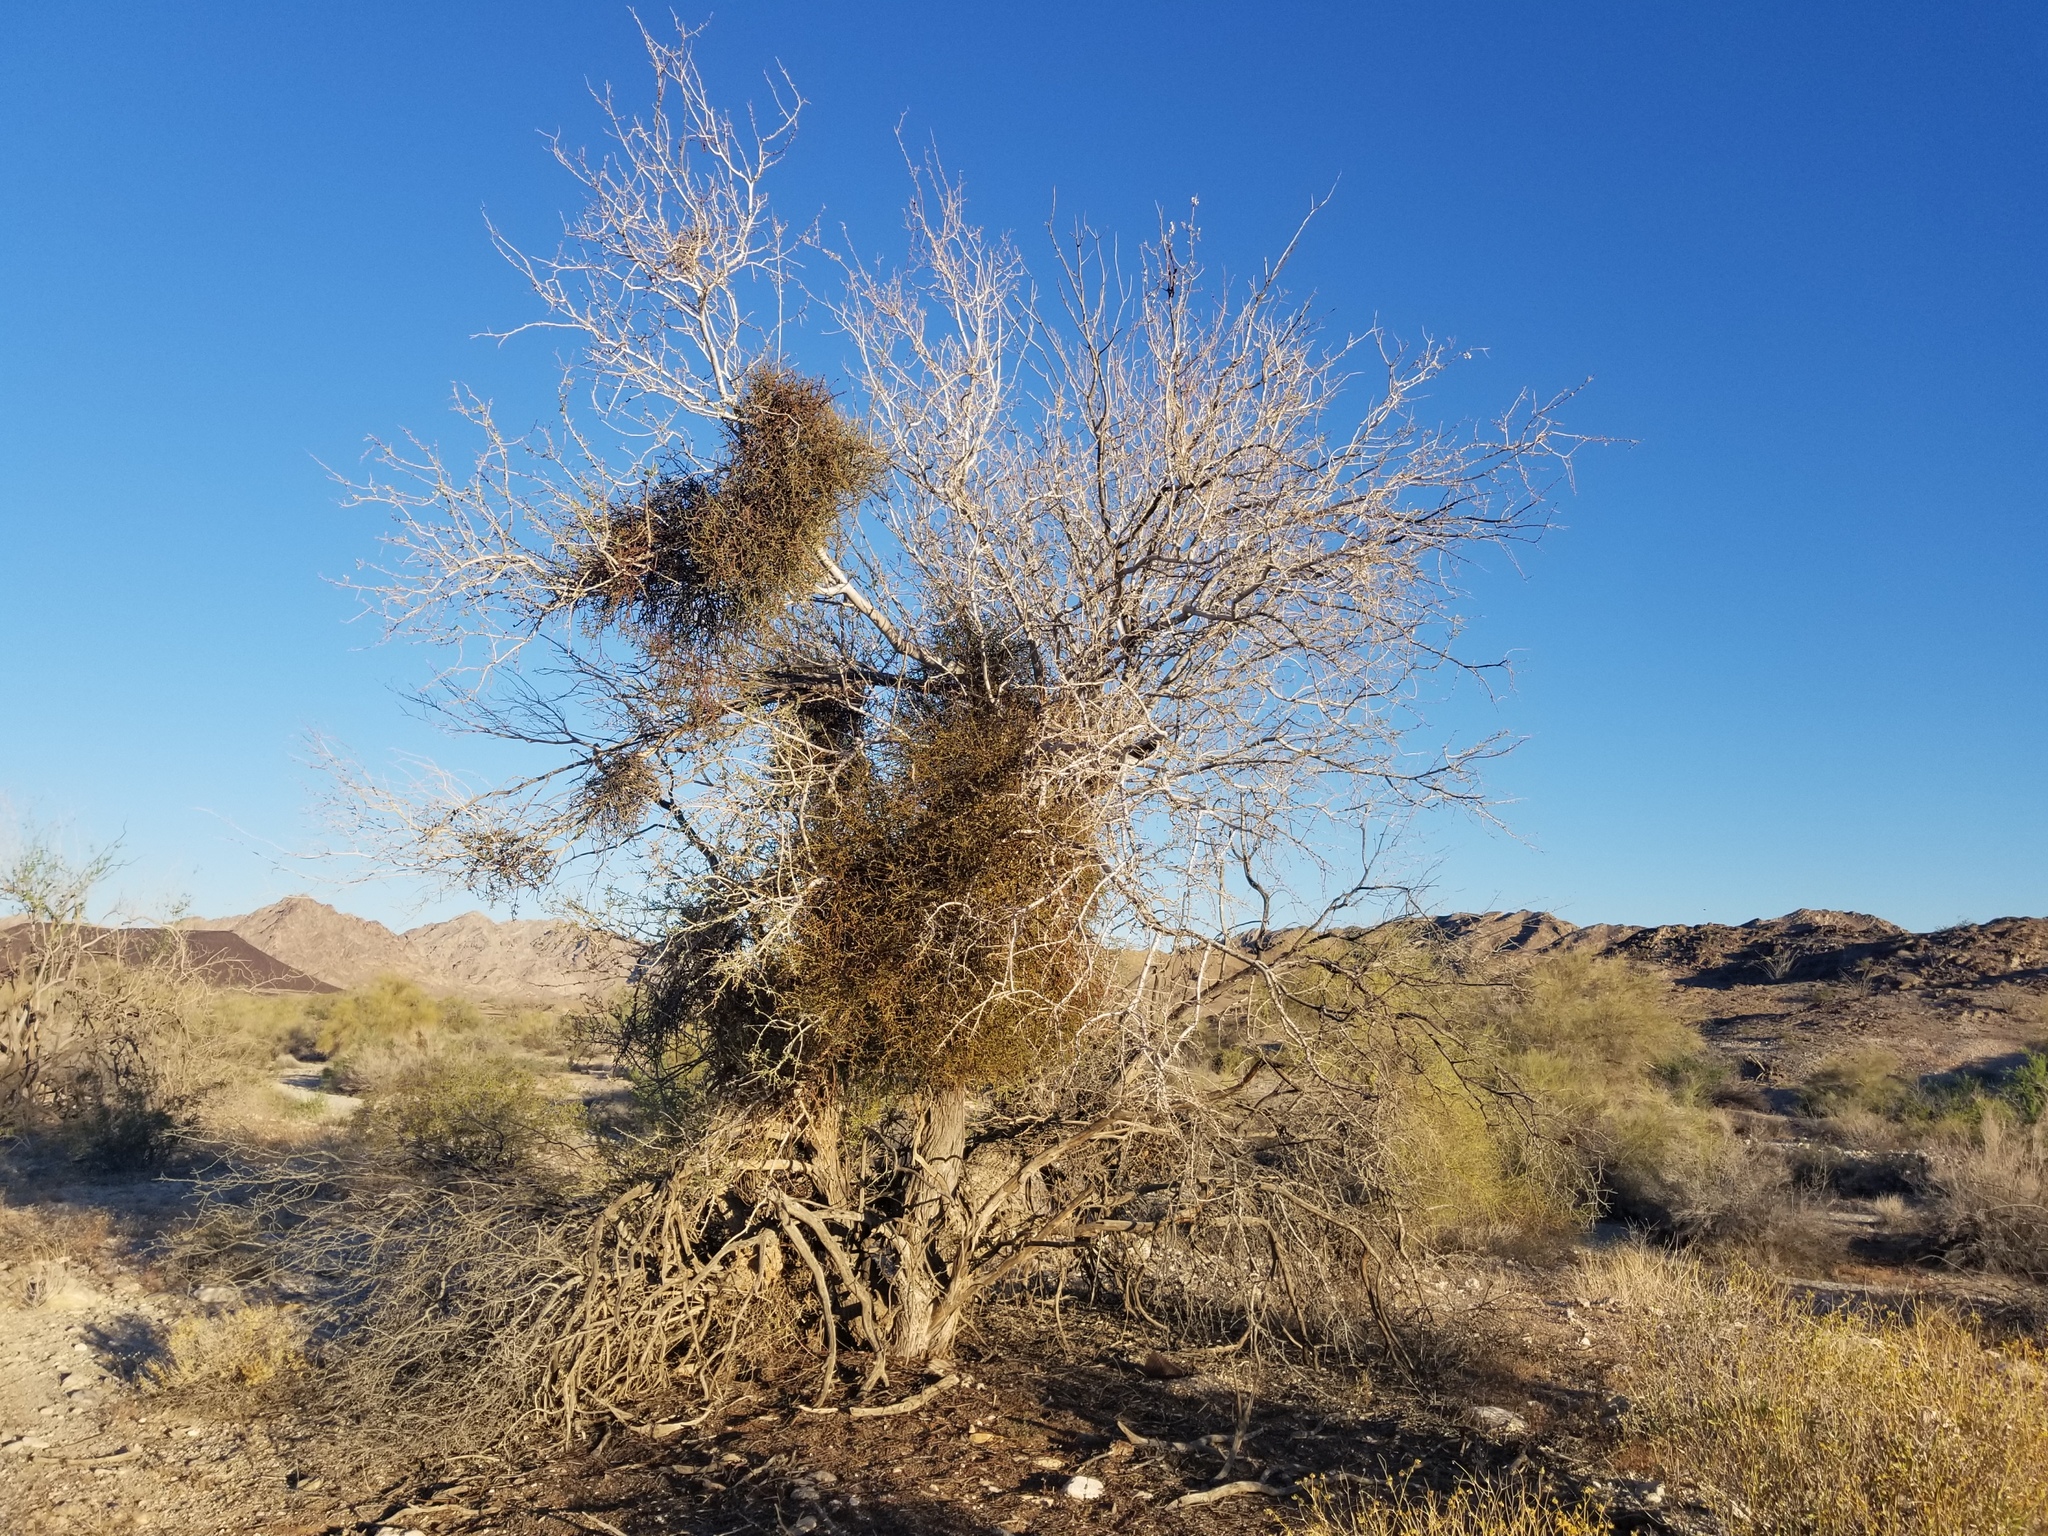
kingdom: Plantae
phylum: Tracheophyta
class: Magnoliopsida
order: Fabales
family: Fabaceae
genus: Olneya
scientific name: Olneya tesota
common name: Desert ironwood
